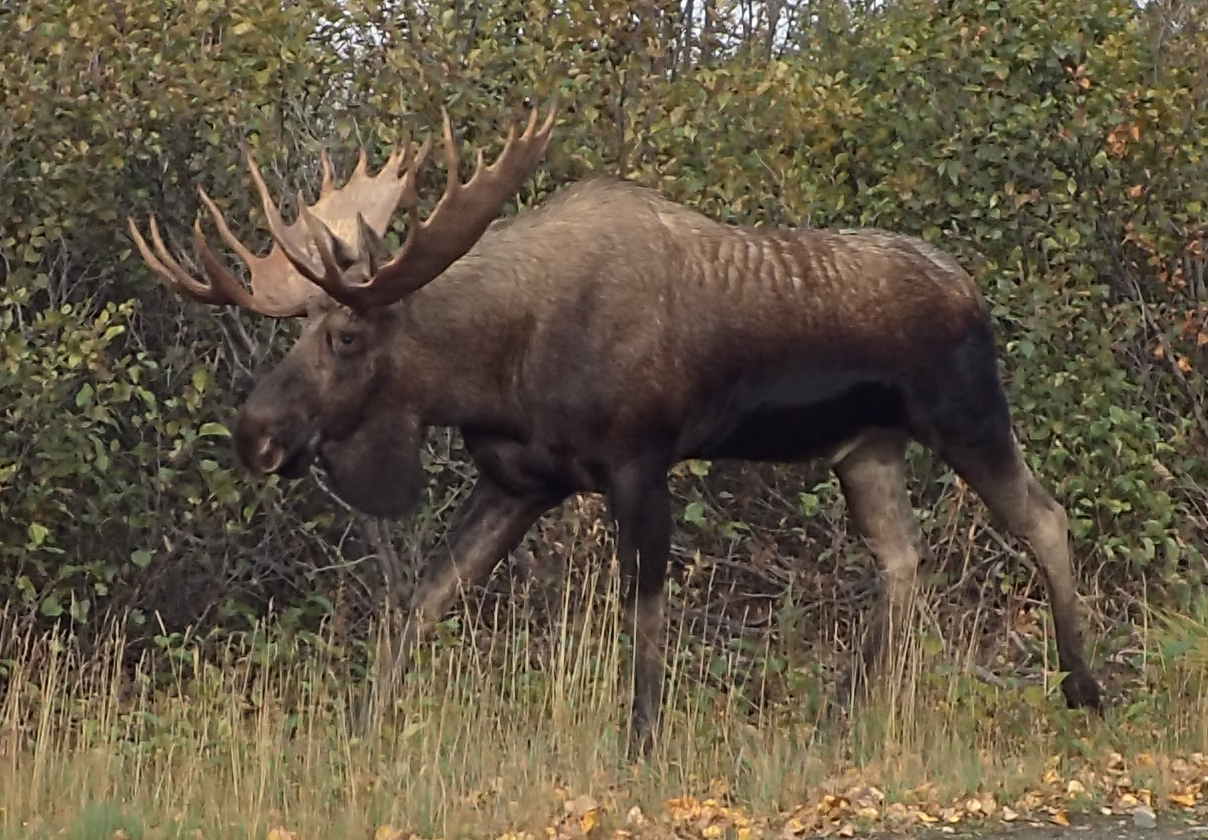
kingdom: Animalia
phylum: Chordata
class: Mammalia
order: Artiodactyla
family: Cervidae
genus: Alces
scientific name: Alces americanus
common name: Moose
